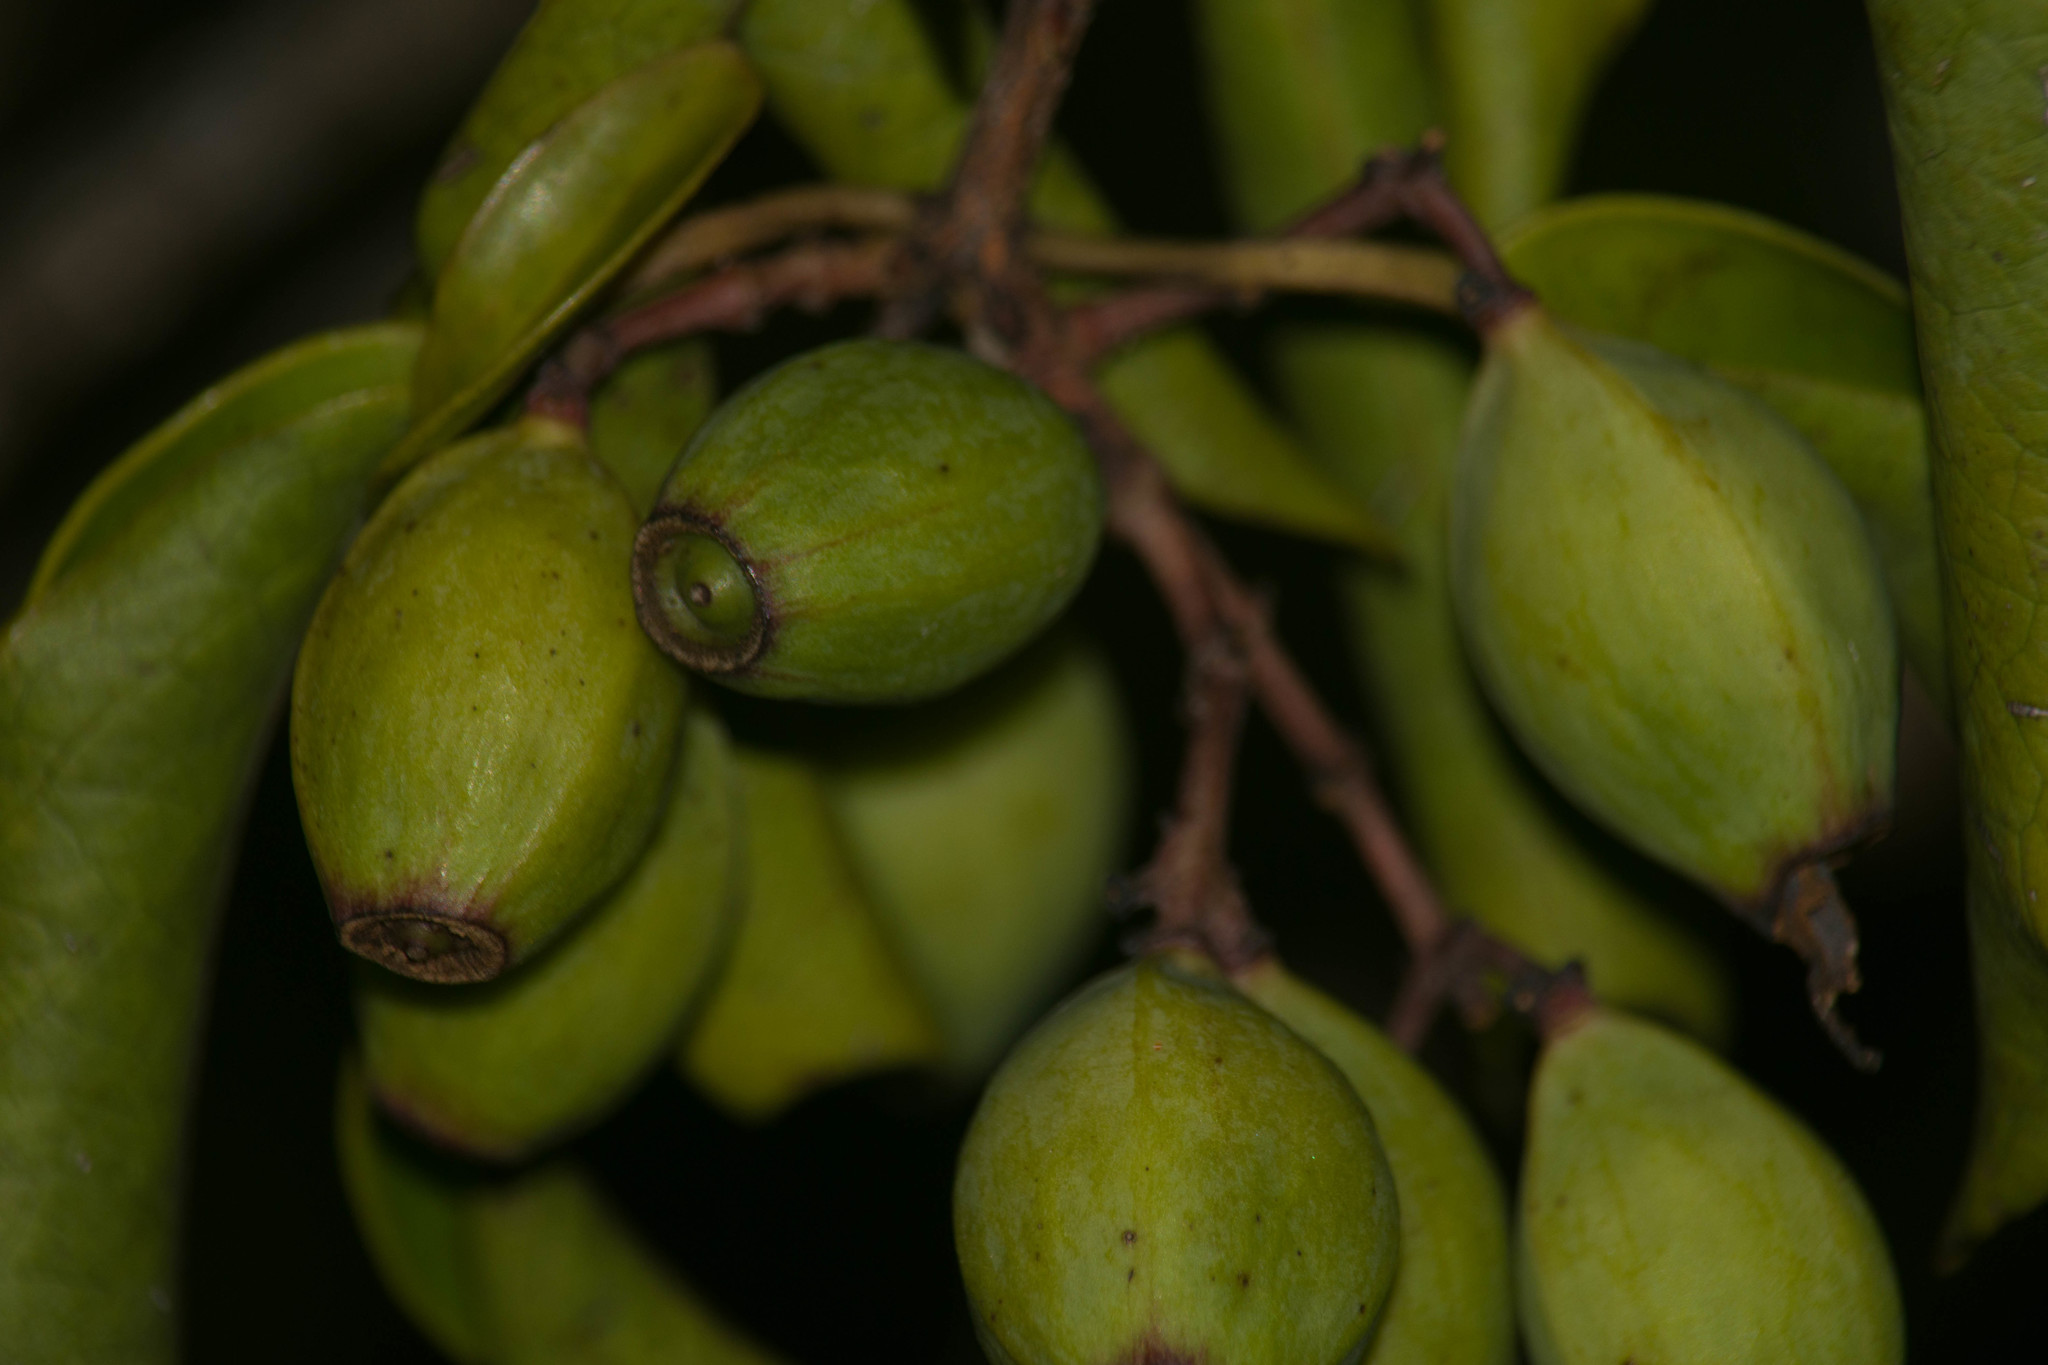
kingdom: Plantae
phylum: Tracheophyta
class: Magnoliopsida
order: Santalales
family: Santalaceae
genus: Santalum
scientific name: Santalum freycinetianum
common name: Lanai sandalwood
